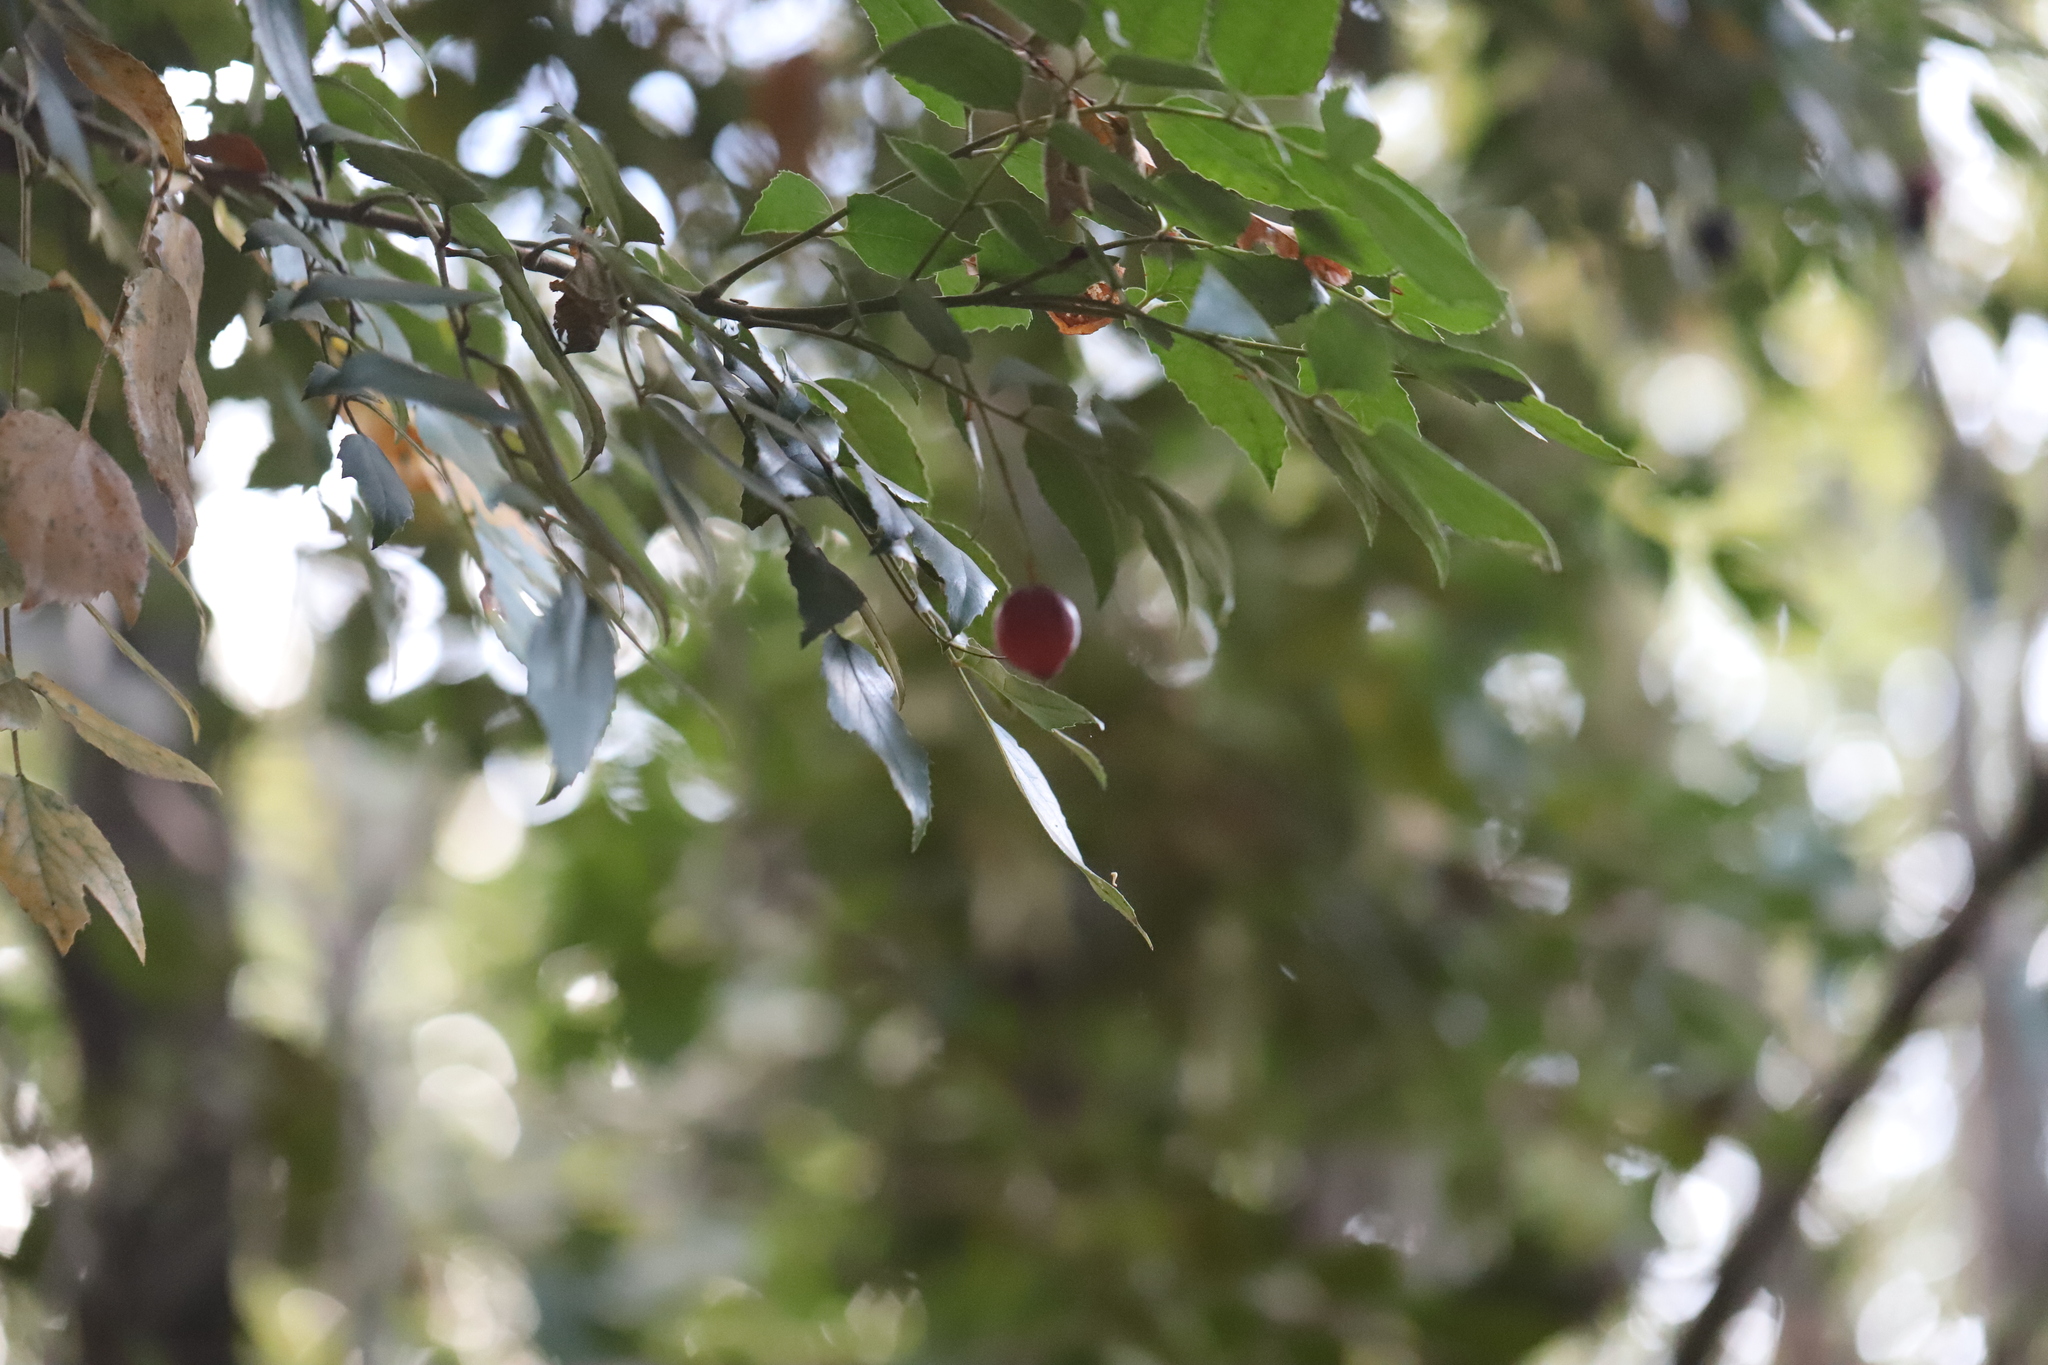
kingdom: Plantae
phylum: Tracheophyta
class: Magnoliopsida
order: Proteales
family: Proteaceae
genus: Gevuina
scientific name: Gevuina avellana
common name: Chilean hazel
